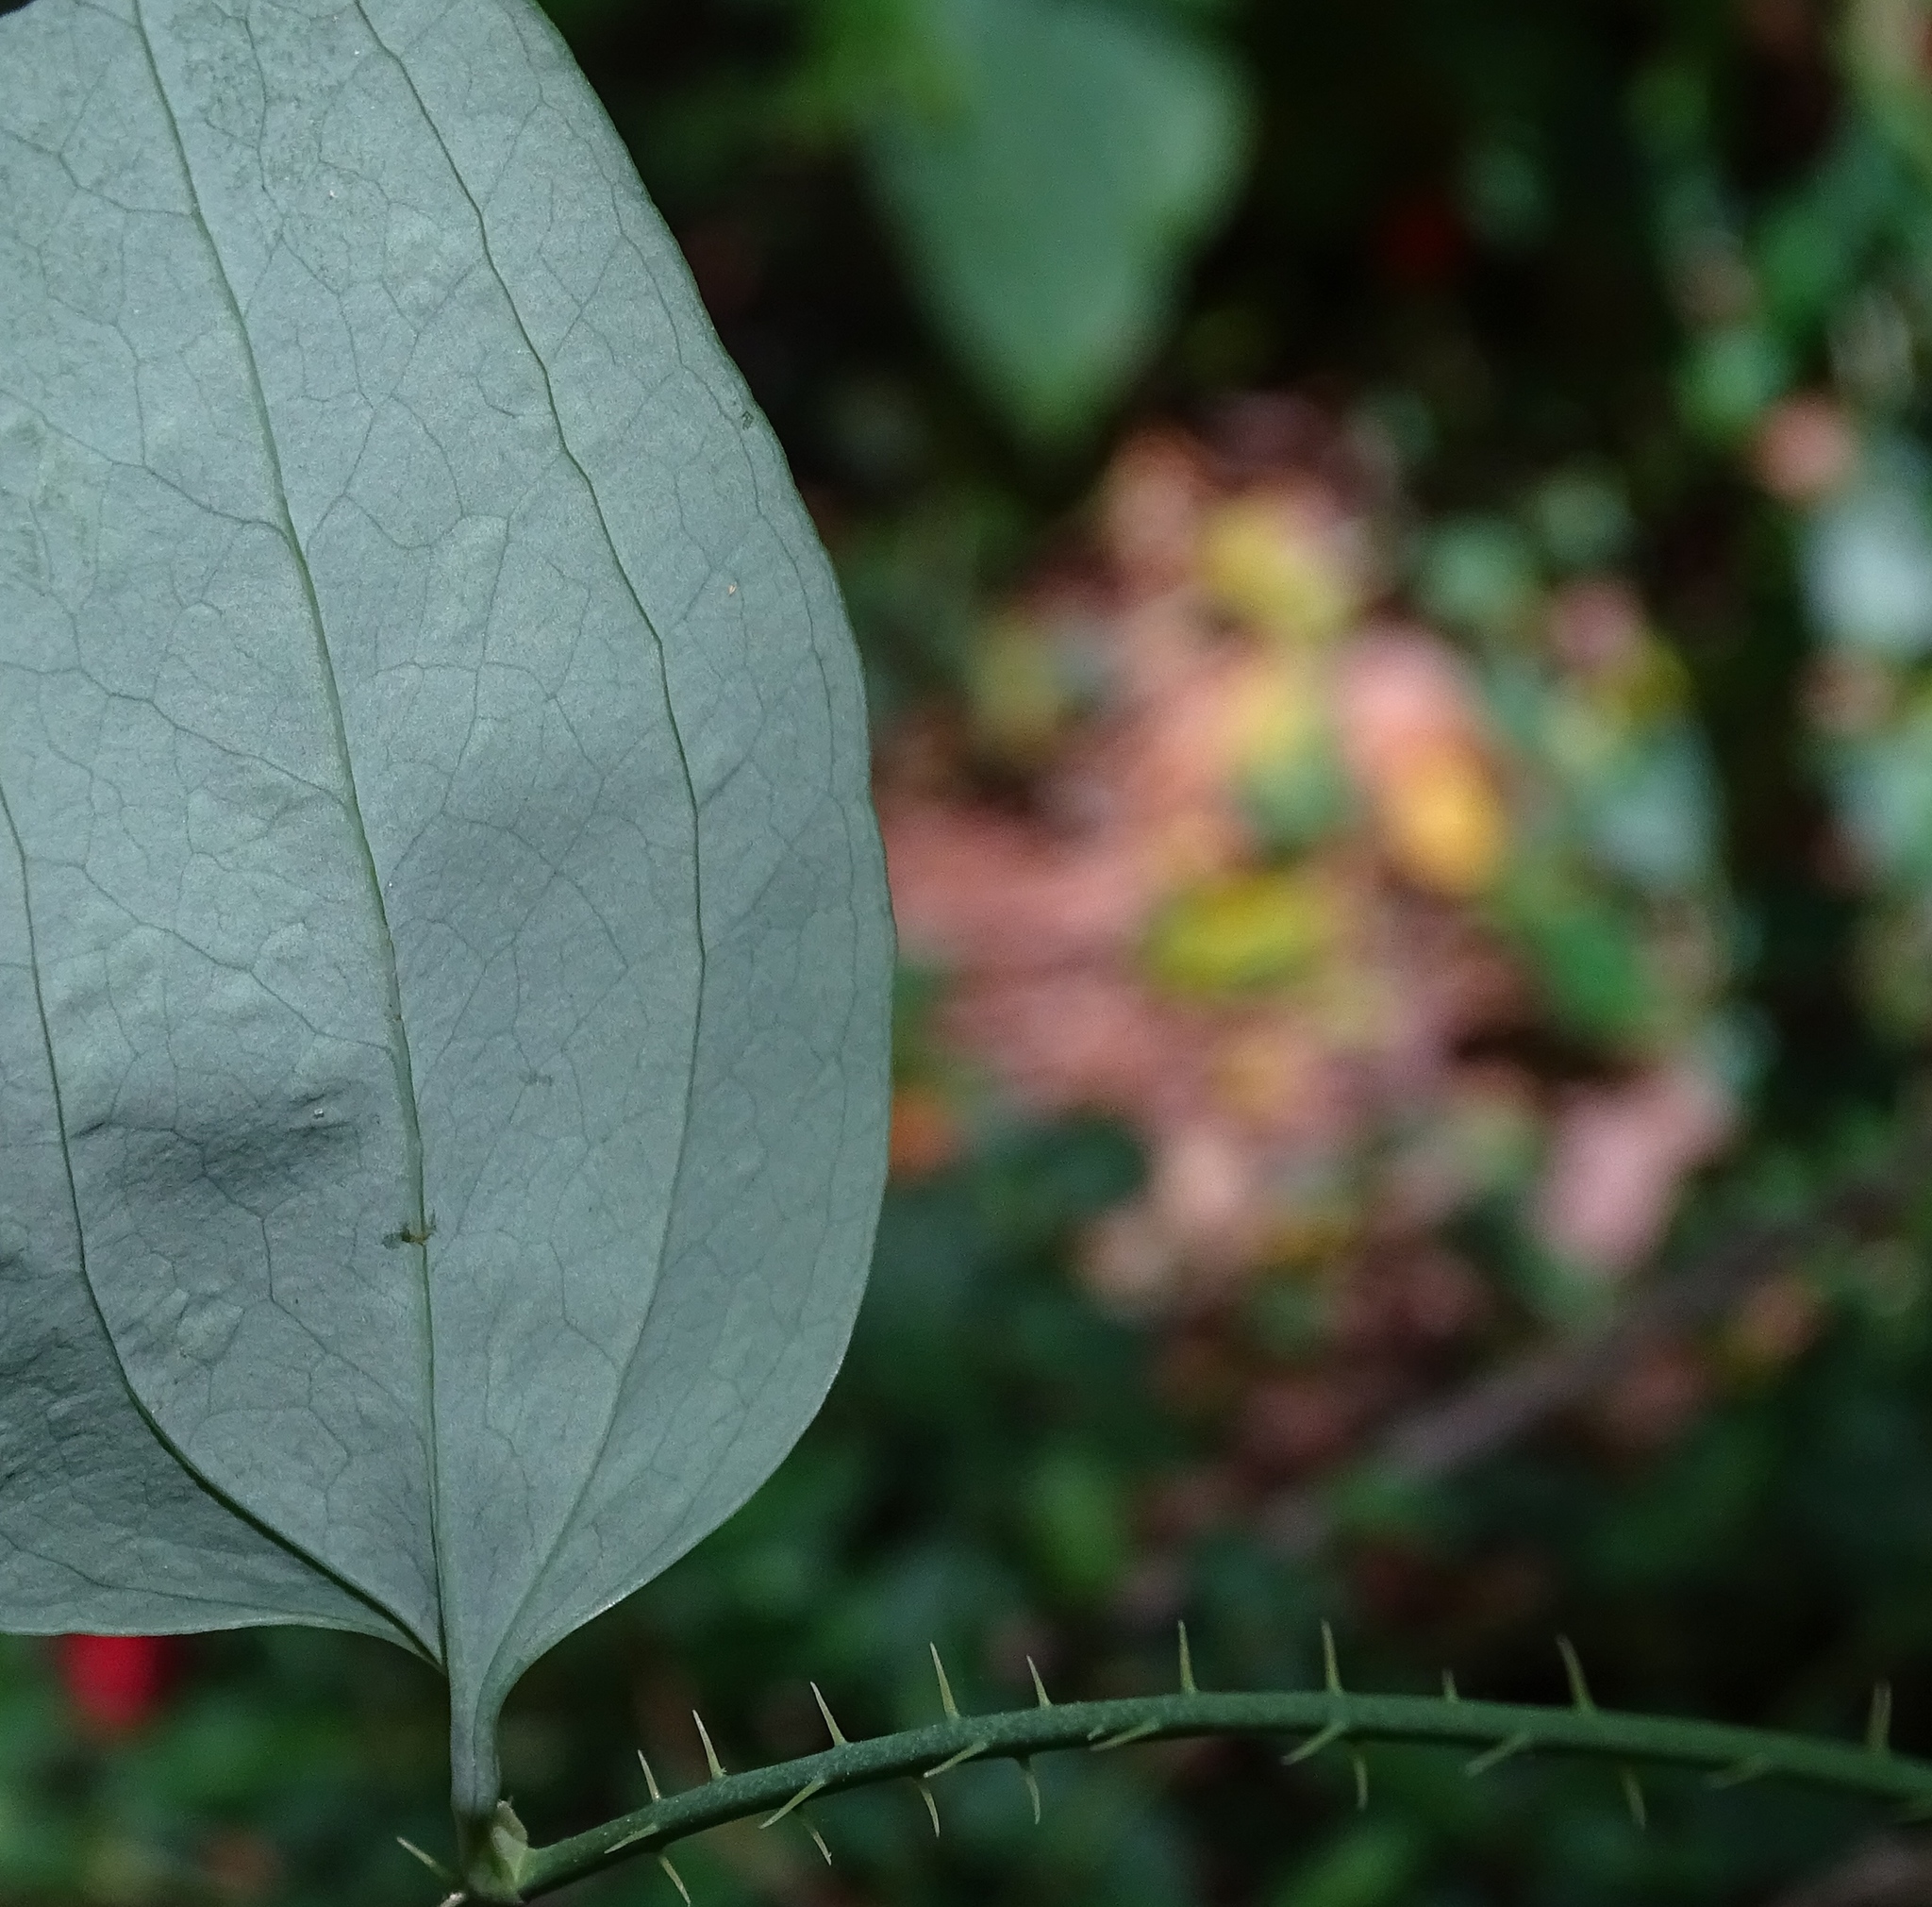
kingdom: Plantae
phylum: Tracheophyta
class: Liliopsida
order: Liliales
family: Smilacaceae
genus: Smilax
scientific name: Smilax glauca
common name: Cat greenbrier
